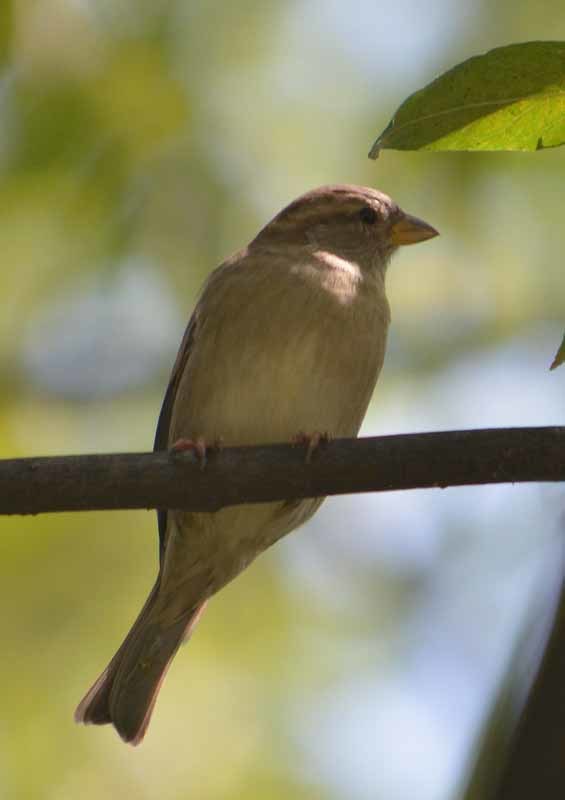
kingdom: Animalia
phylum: Chordata
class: Aves
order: Passeriformes
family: Passeridae
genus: Passer
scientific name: Passer domesticus
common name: House sparrow
